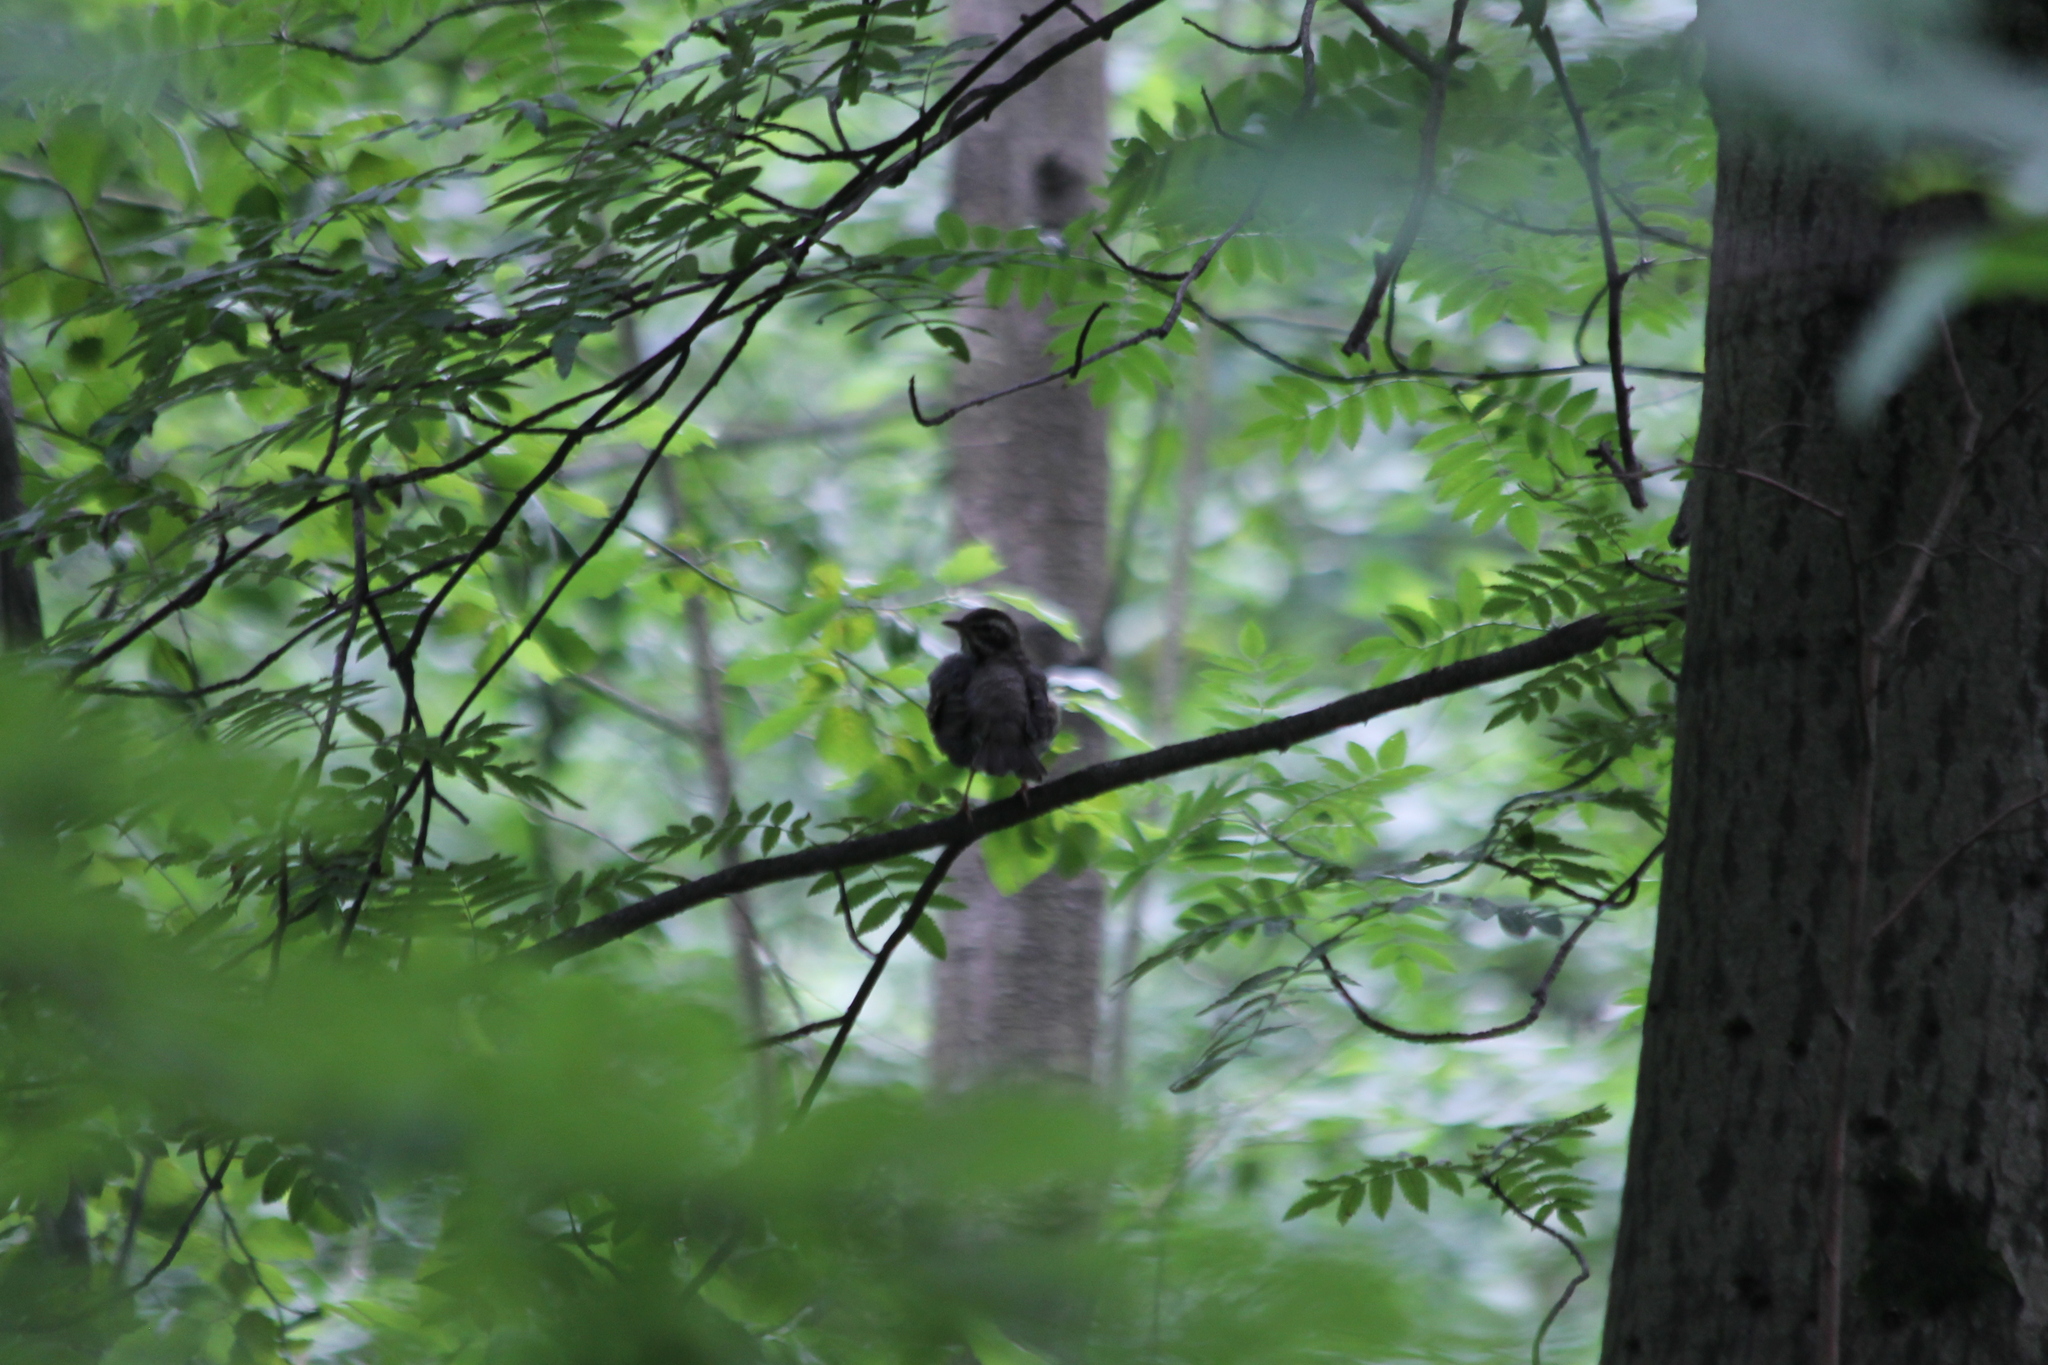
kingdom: Animalia
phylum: Chordata
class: Aves
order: Passeriformes
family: Turdidae
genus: Turdus
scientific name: Turdus iliacus
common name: Redwing
